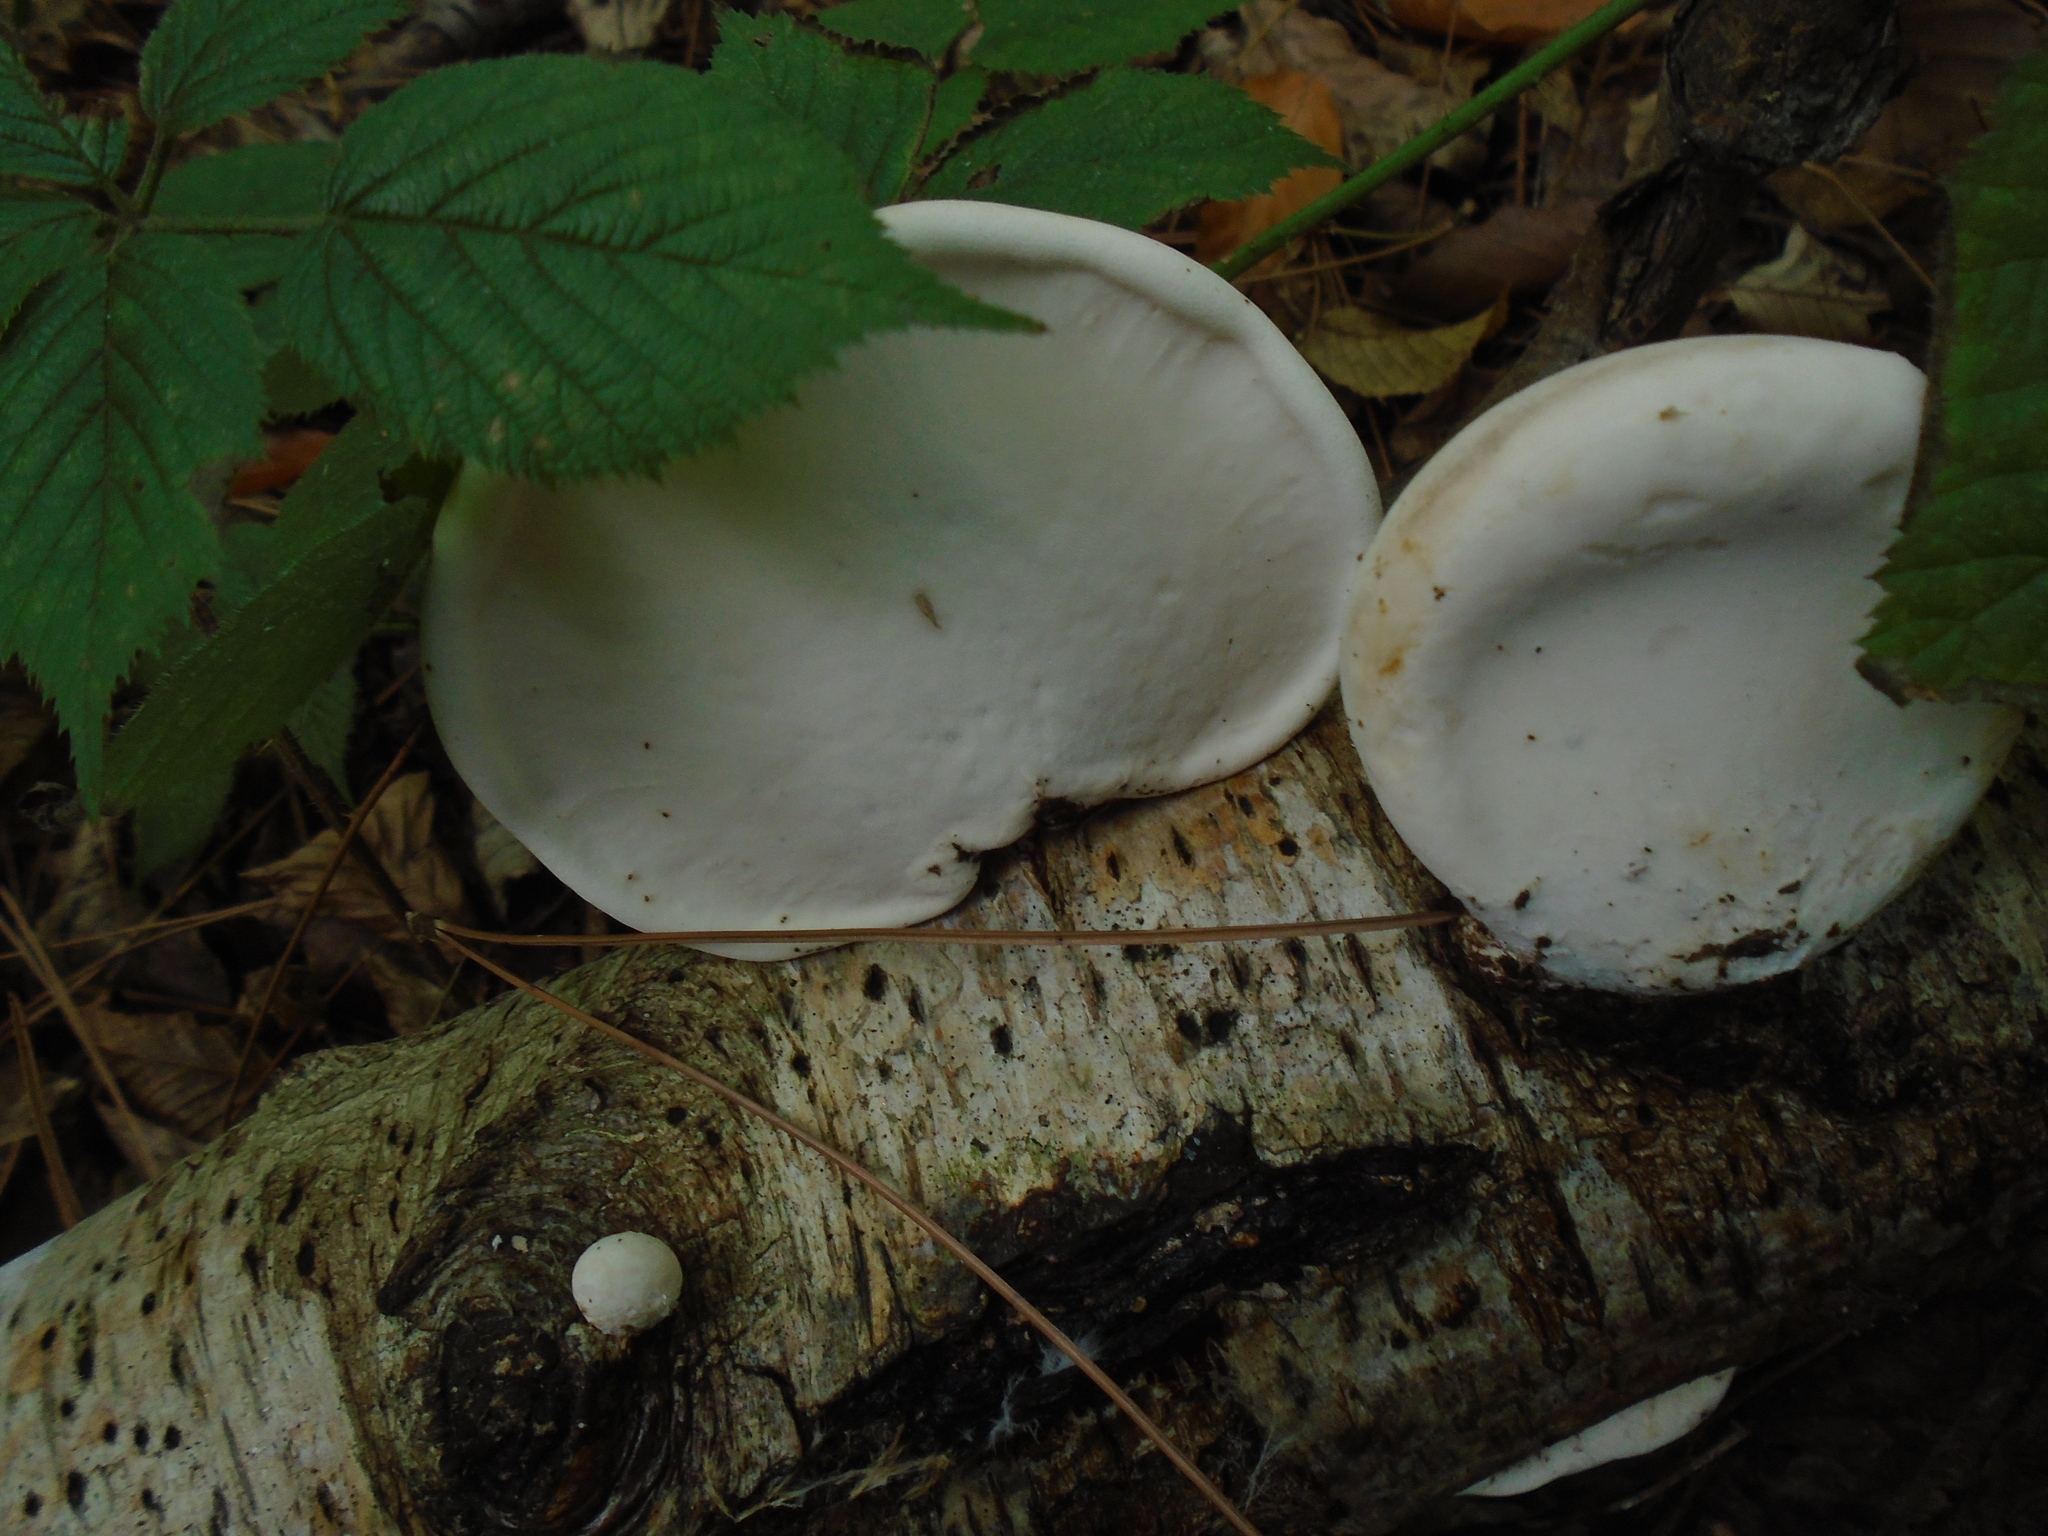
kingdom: Fungi
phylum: Basidiomycota
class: Agaricomycetes
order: Polyporales
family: Fomitopsidaceae
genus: Fomitopsis
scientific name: Fomitopsis betulina
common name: Birch polypore
